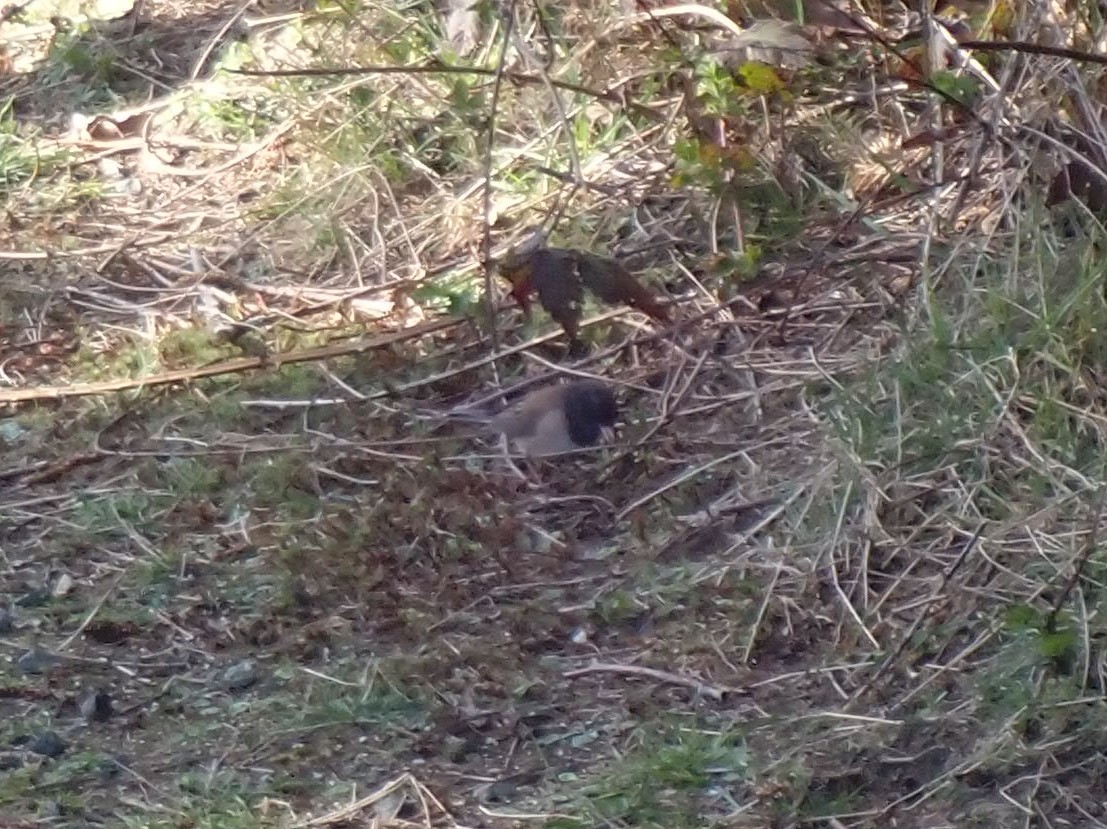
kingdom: Animalia
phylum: Chordata
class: Aves
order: Passeriformes
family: Passerellidae
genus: Junco
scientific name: Junco hyemalis
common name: Dark-eyed junco
